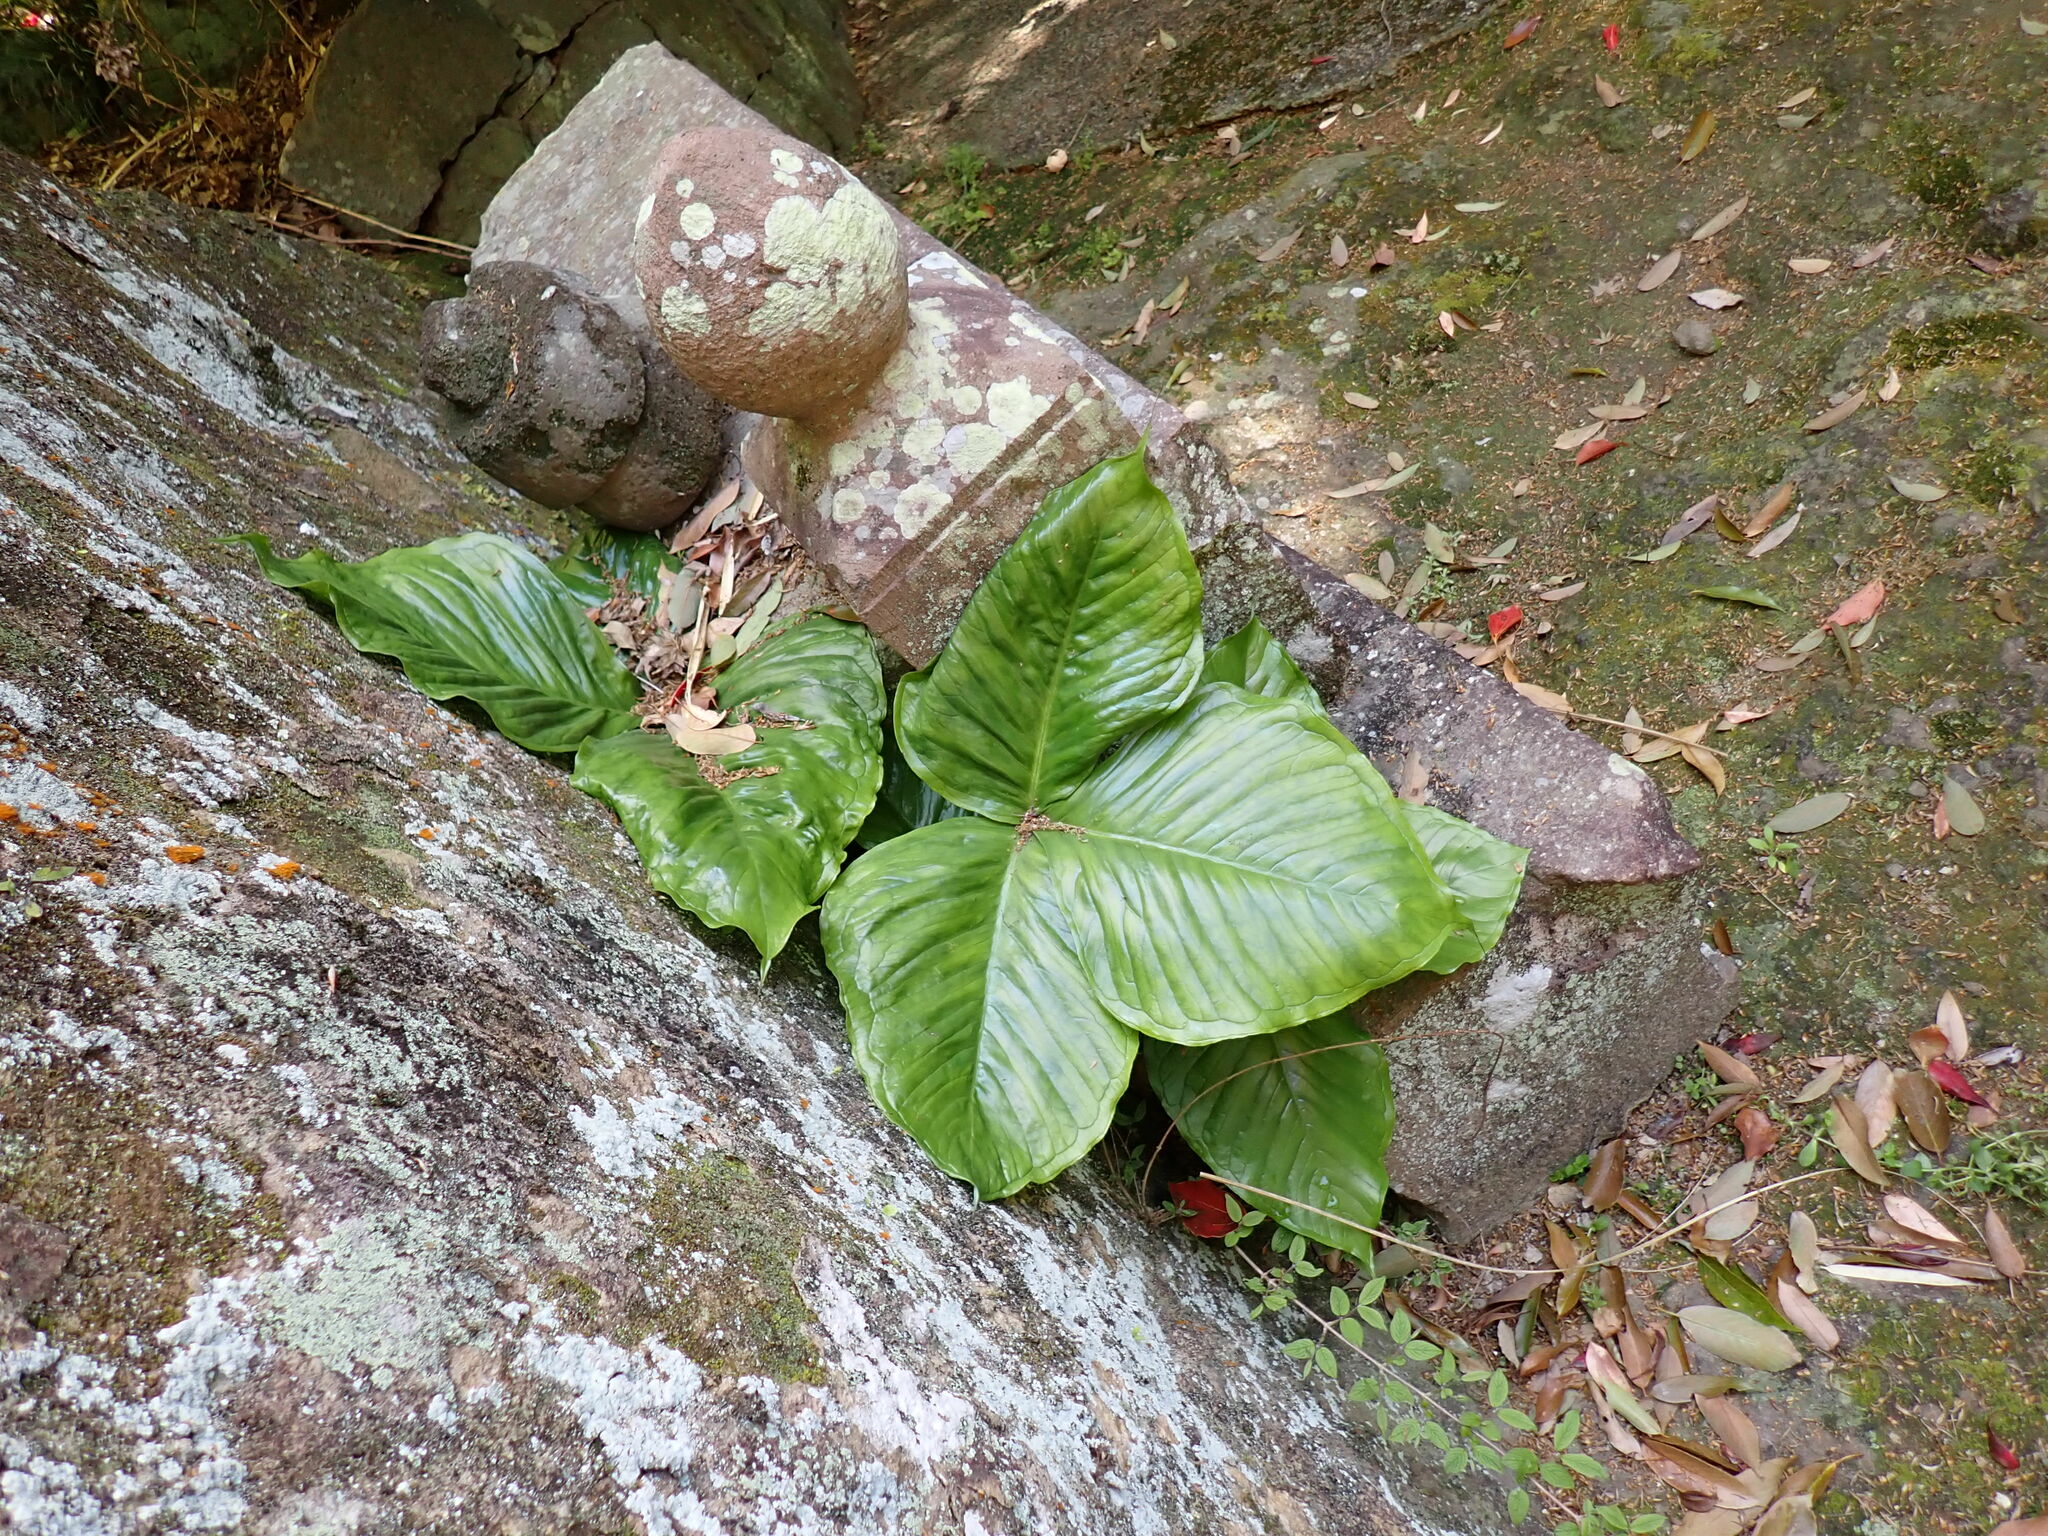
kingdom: Plantae
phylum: Tracheophyta
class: Liliopsida
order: Alismatales
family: Araceae
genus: Arisaema
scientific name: Arisaema ringens
